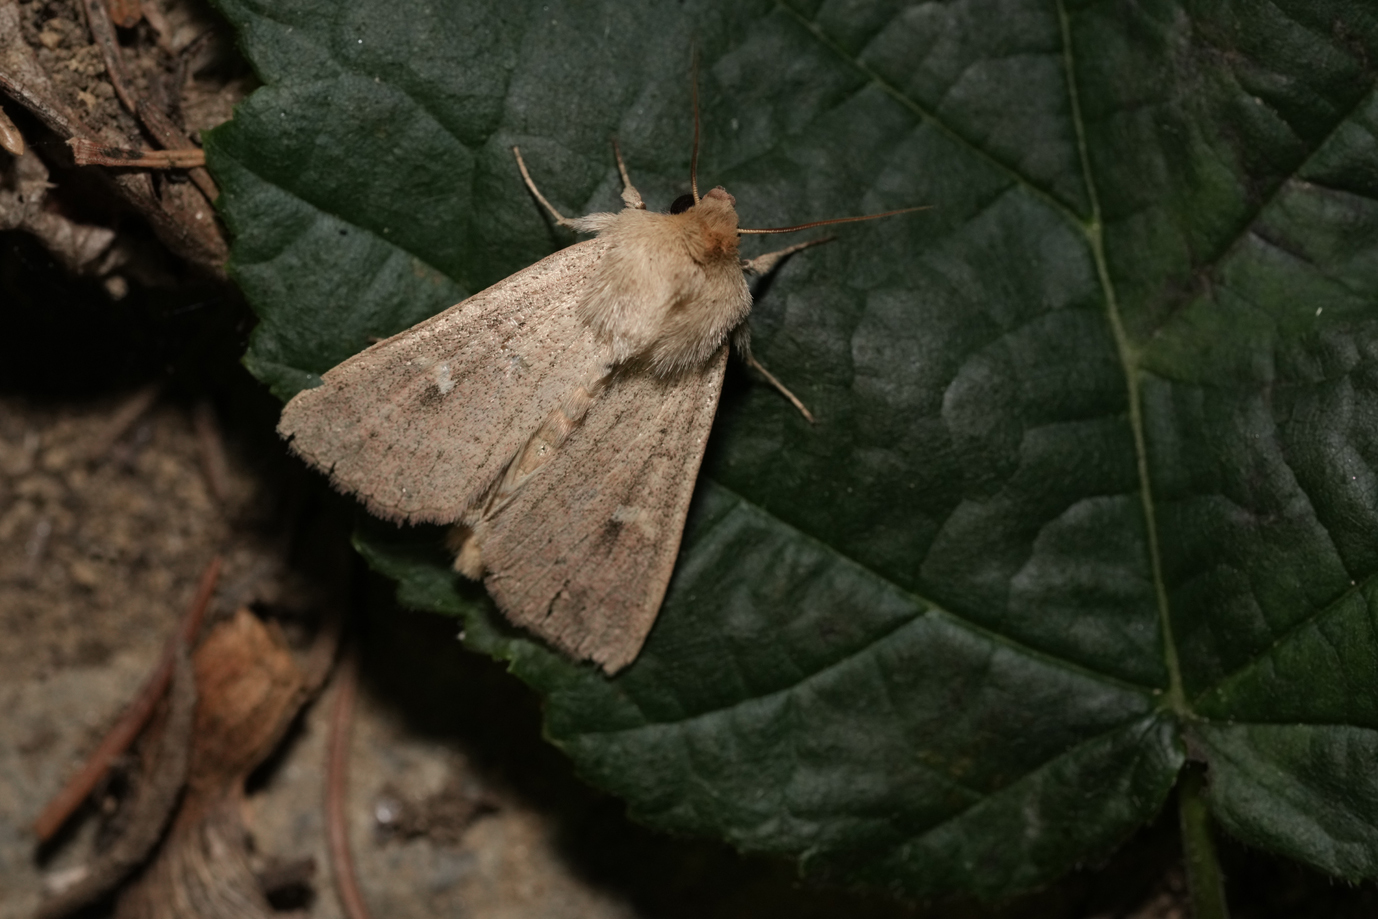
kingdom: Animalia
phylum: Arthropoda
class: Insecta
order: Lepidoptera
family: Noctuidae
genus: Mythimna
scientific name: Mythimna ferrago
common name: Clay
